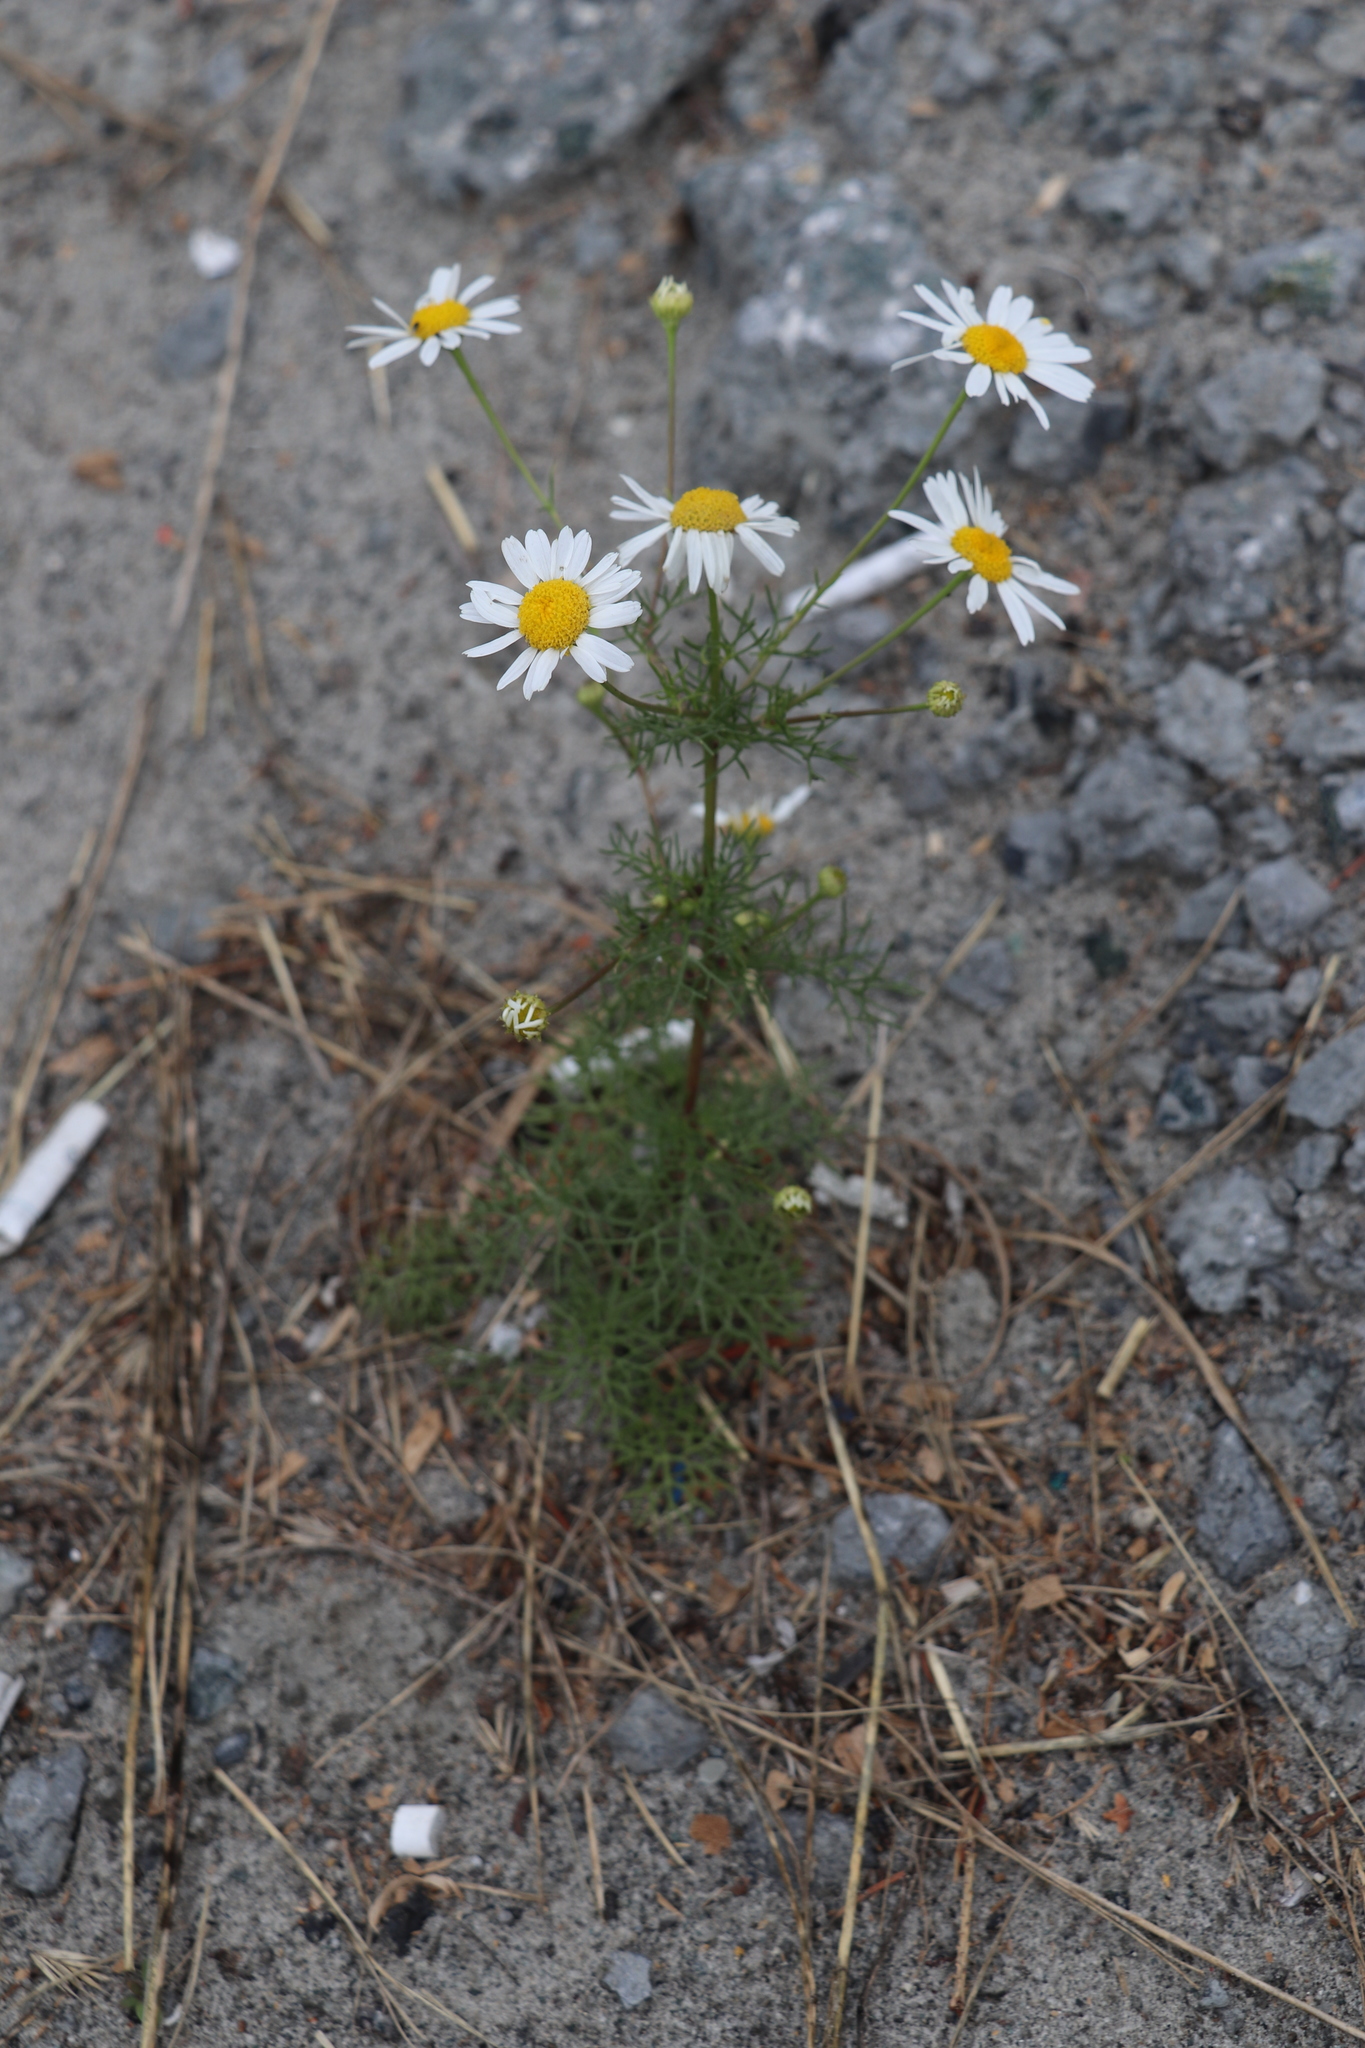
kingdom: Plantae
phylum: Tracheophyta
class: Magnoliopsida
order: Asterales
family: Asteraceae
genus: Tripleurospermum
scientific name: Tripleurospermum inodorum
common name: Scentless mayweed
